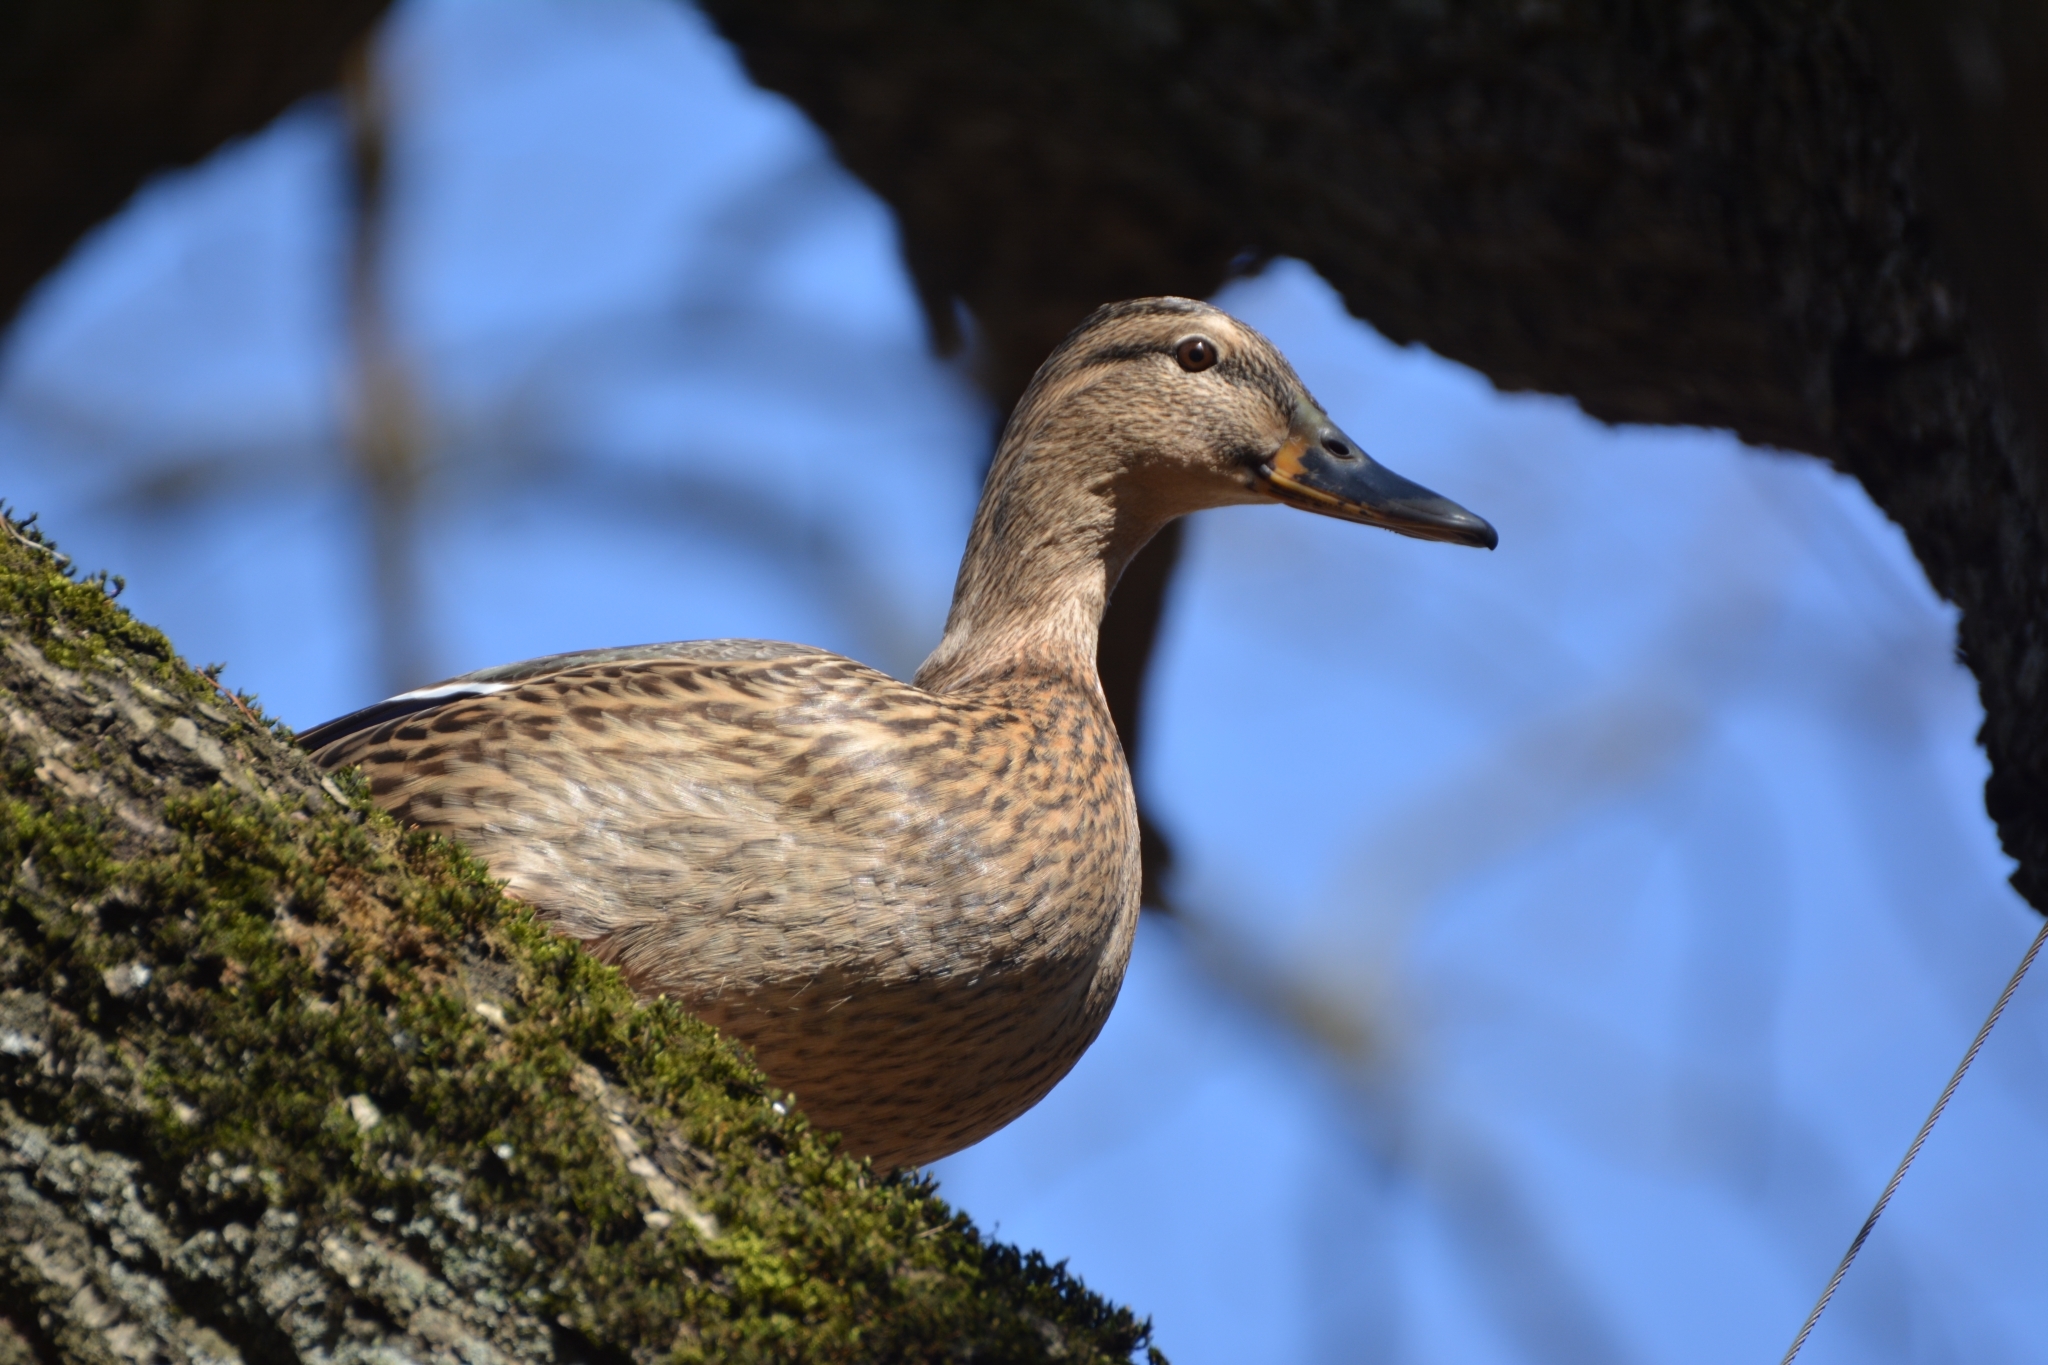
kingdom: Animalia
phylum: Chordata
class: Aves
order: Anseriformes
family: Anatidae
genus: Anas
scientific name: Anas platyrhynchos
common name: Mallard
